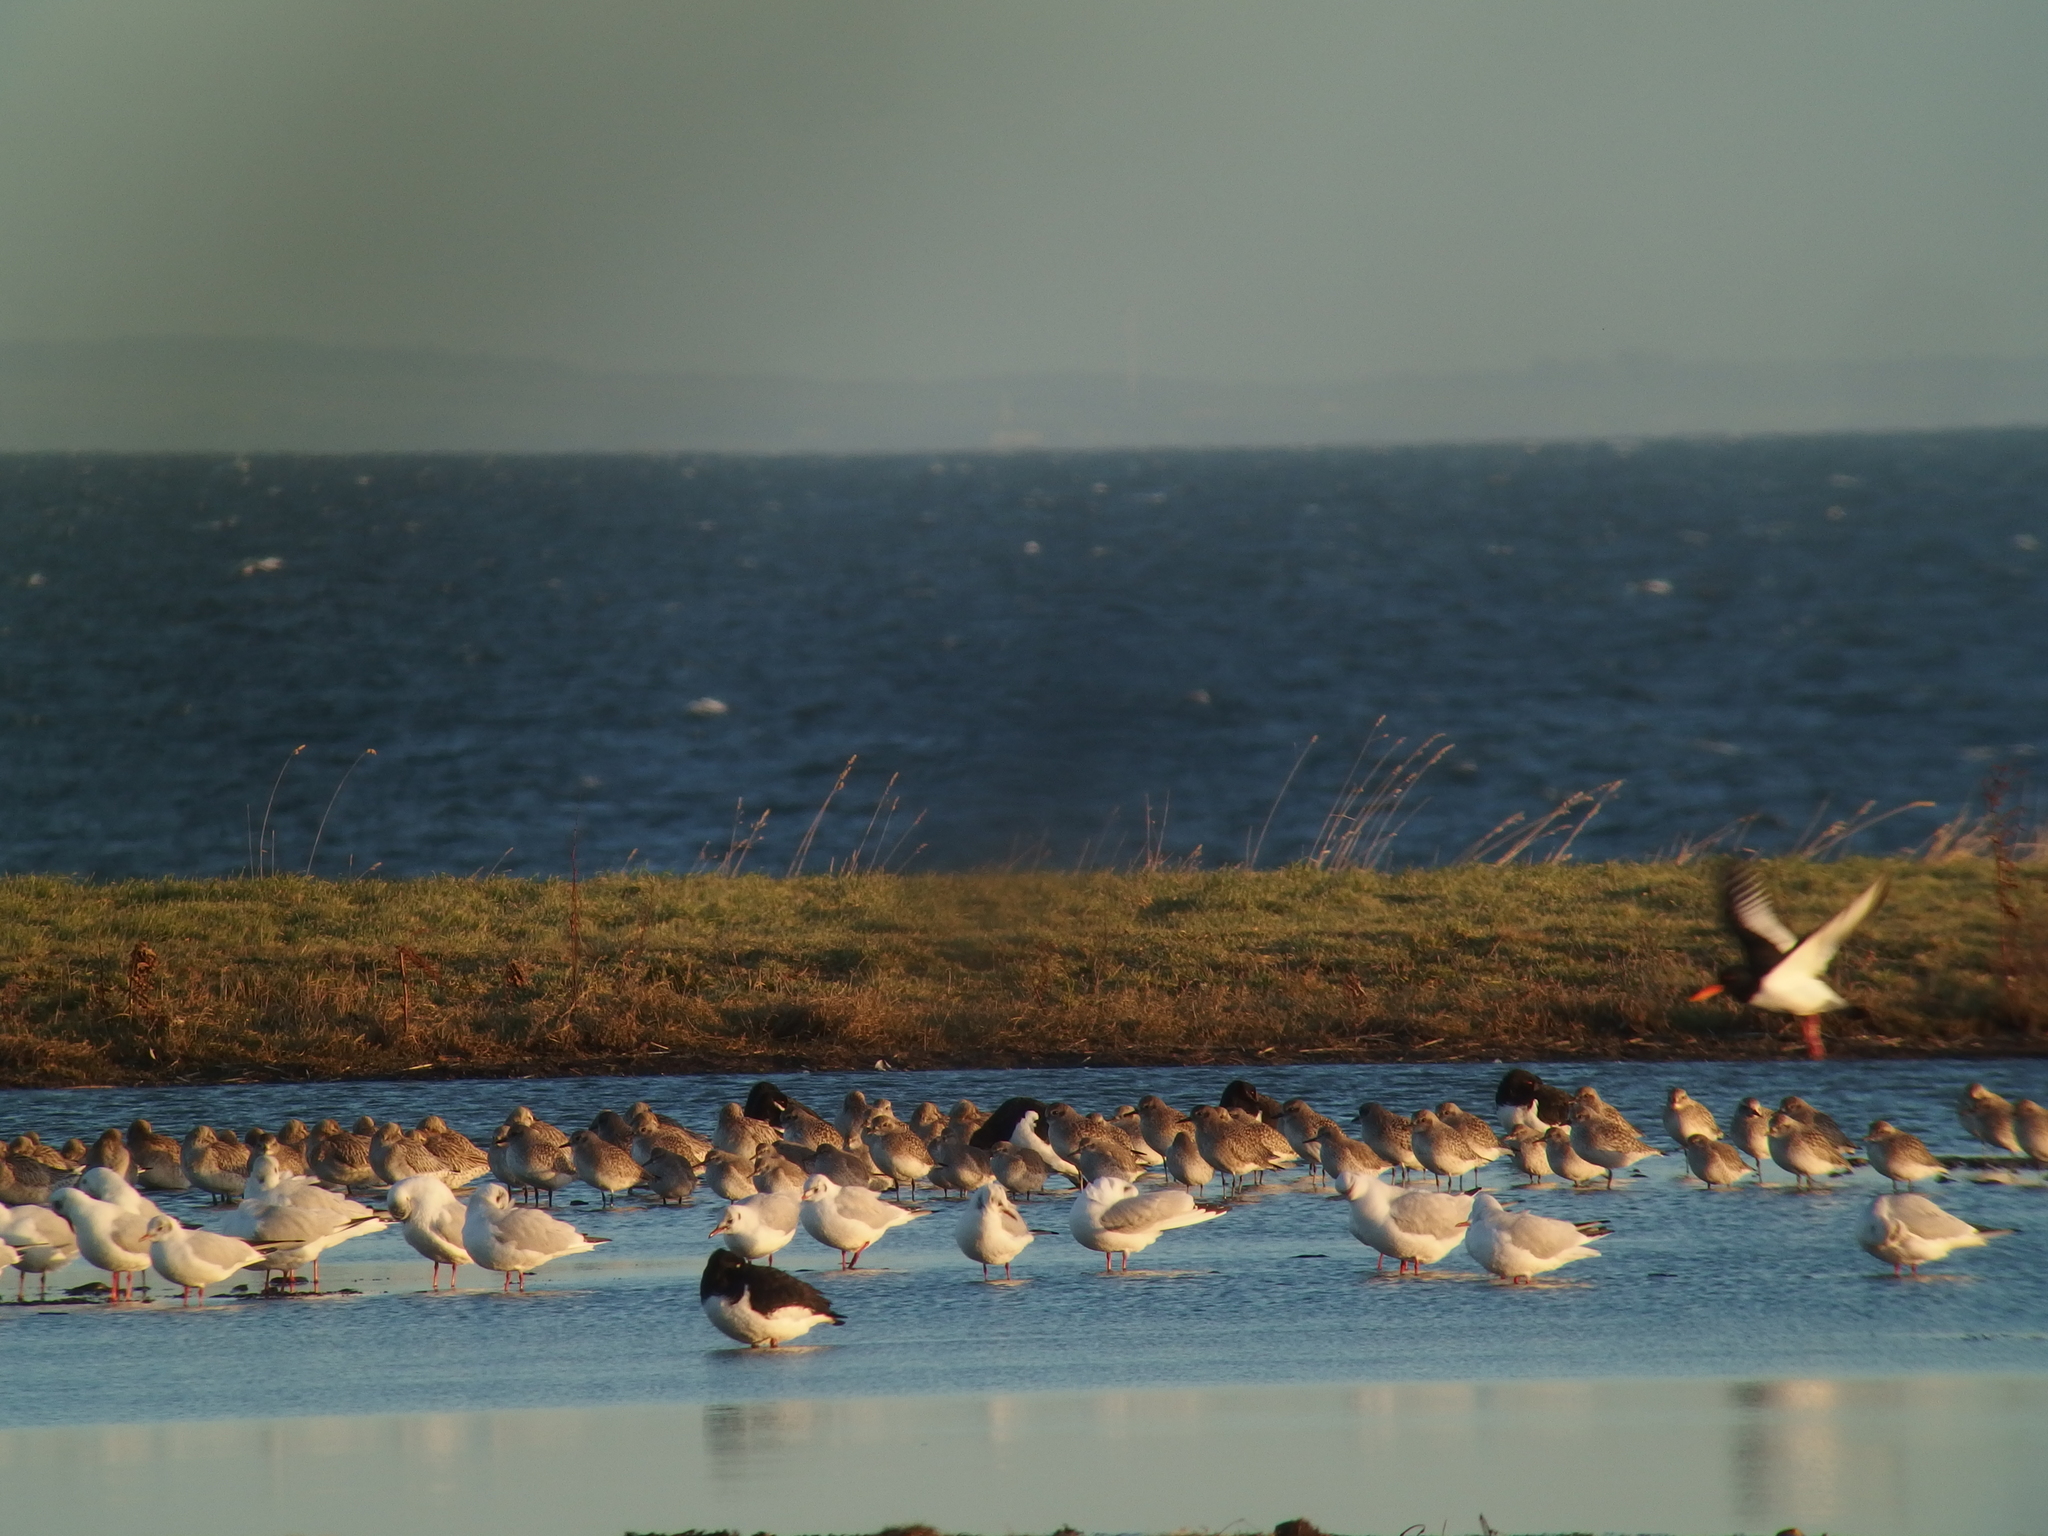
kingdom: Animalia
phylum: Chordata
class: Aves
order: Charadriiformes
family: Charadriidae
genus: Pluvialis
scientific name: Pluvialis apricaria
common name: European golden plover
